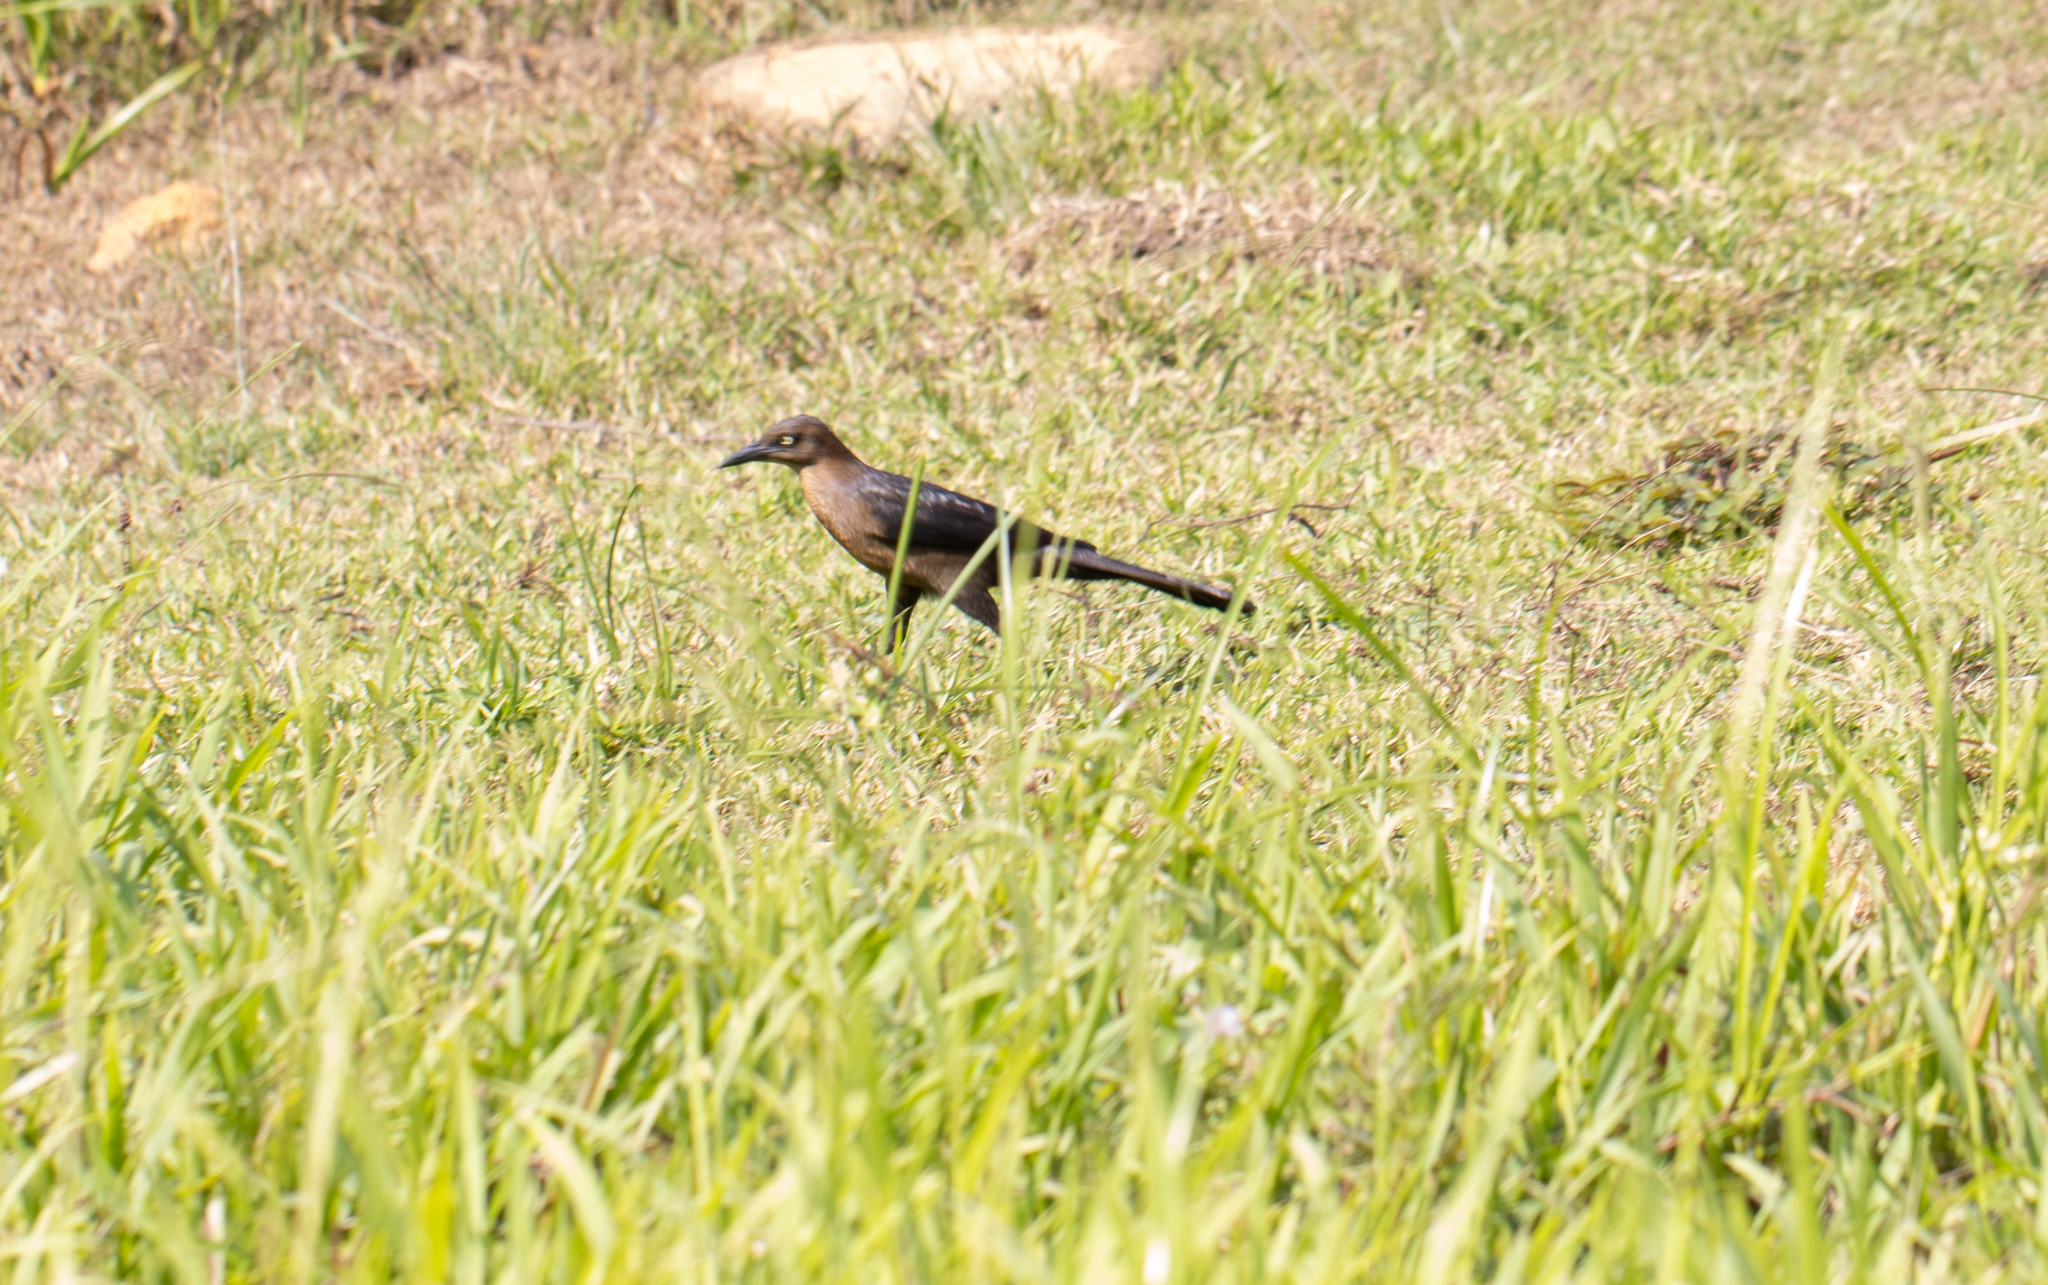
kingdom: Animalia
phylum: Chordata
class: Aves
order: Passeriformes
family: Icteridae
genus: Quiscalus
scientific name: Quiscalus mexicanus
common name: Great-tailed grackle
